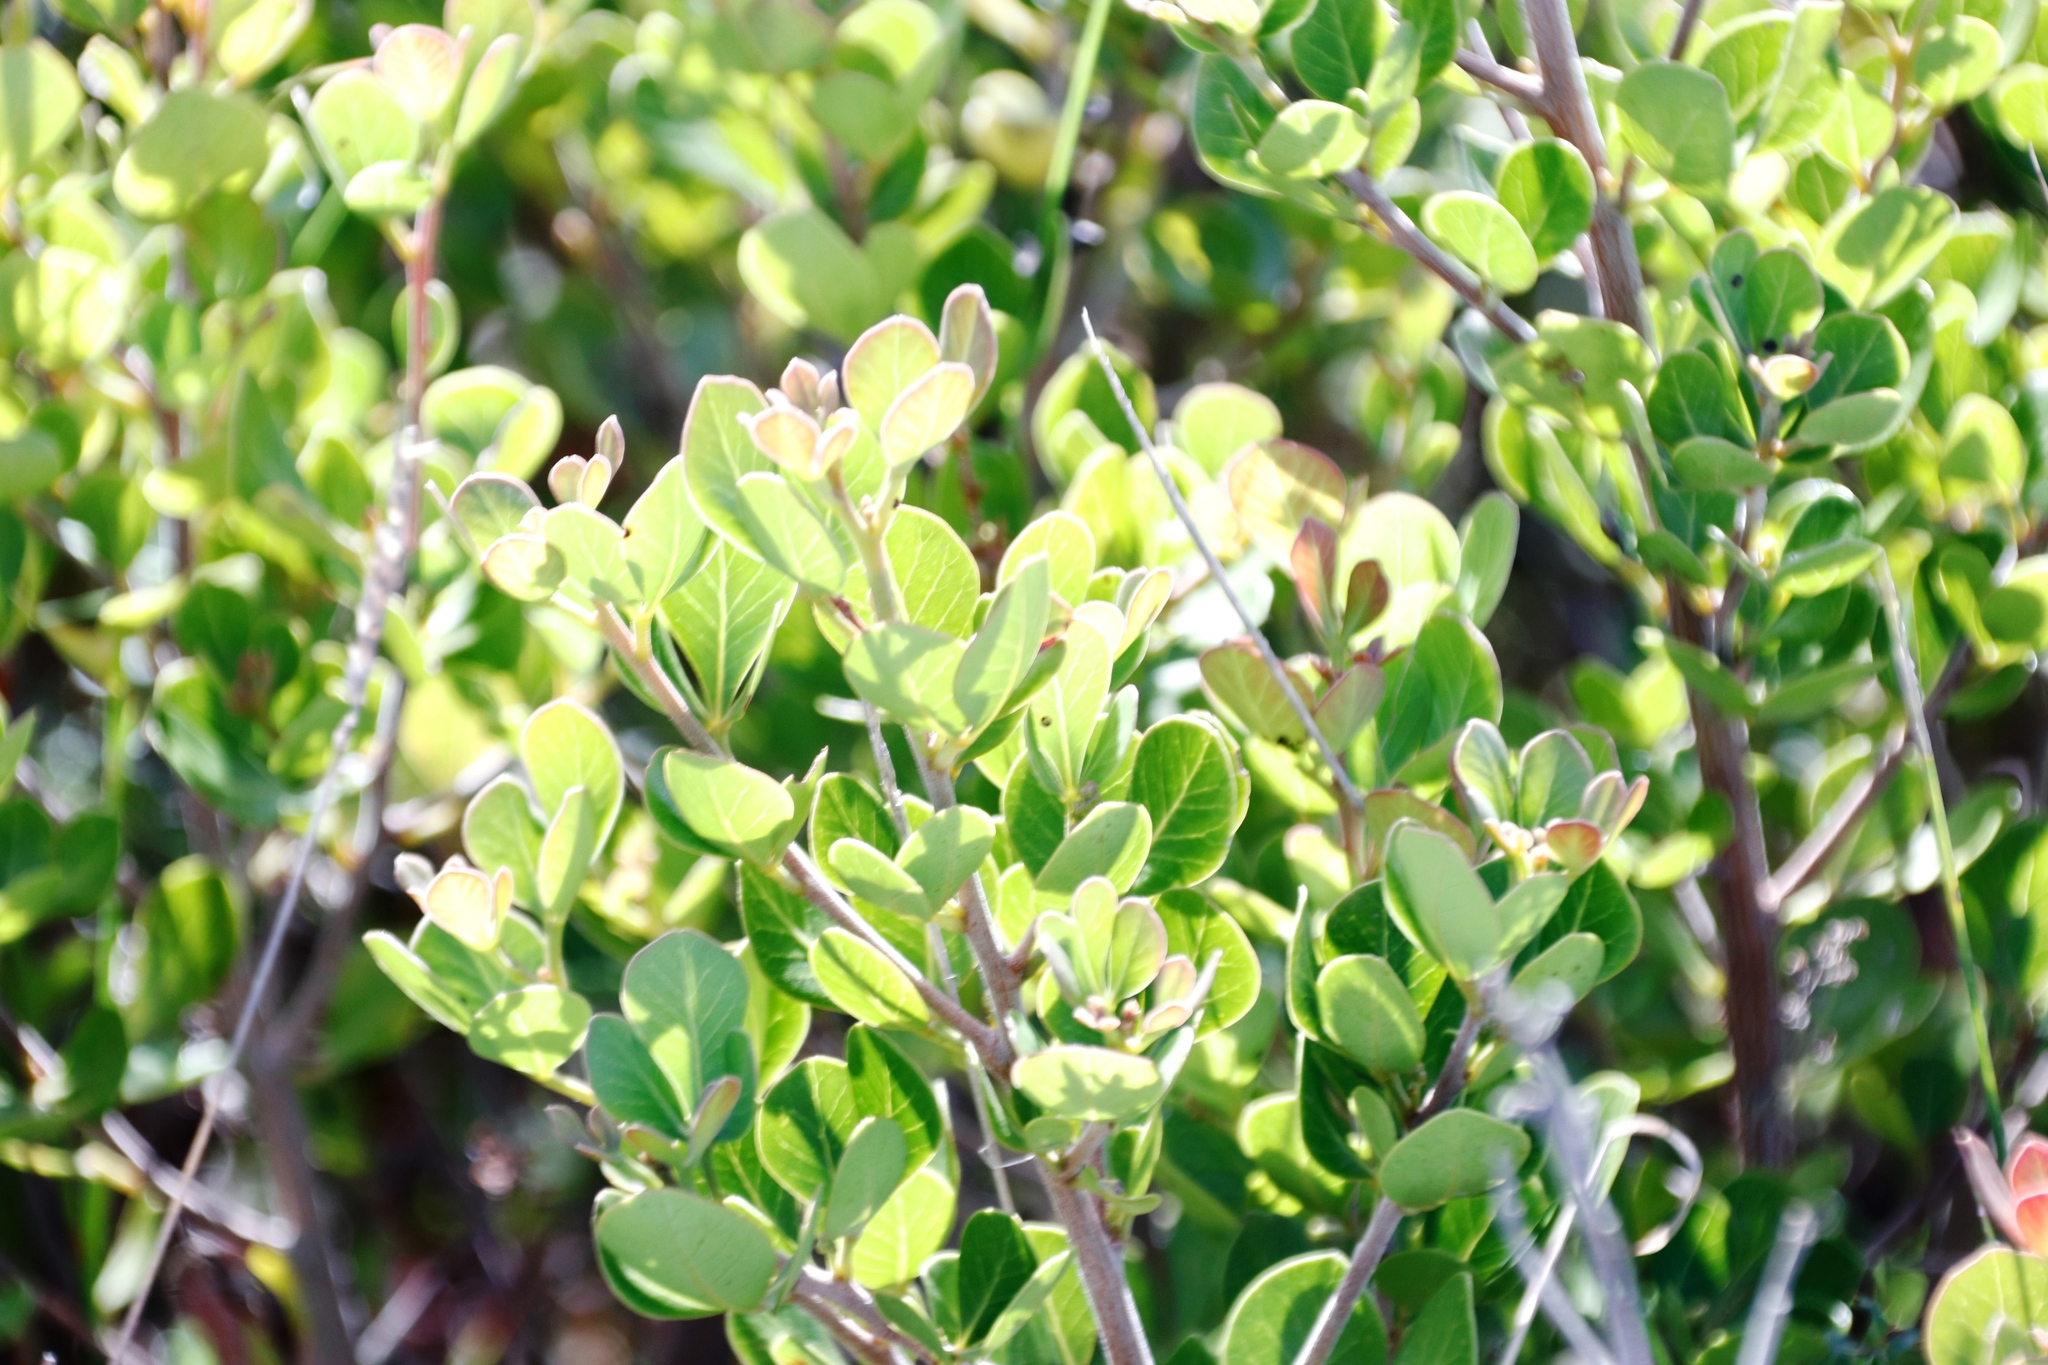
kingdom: Plantae
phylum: Tracheophyta
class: Magnoliopsida
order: Sapindales
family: Anacardiaceae
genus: Searsia
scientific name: Searsia lucida
